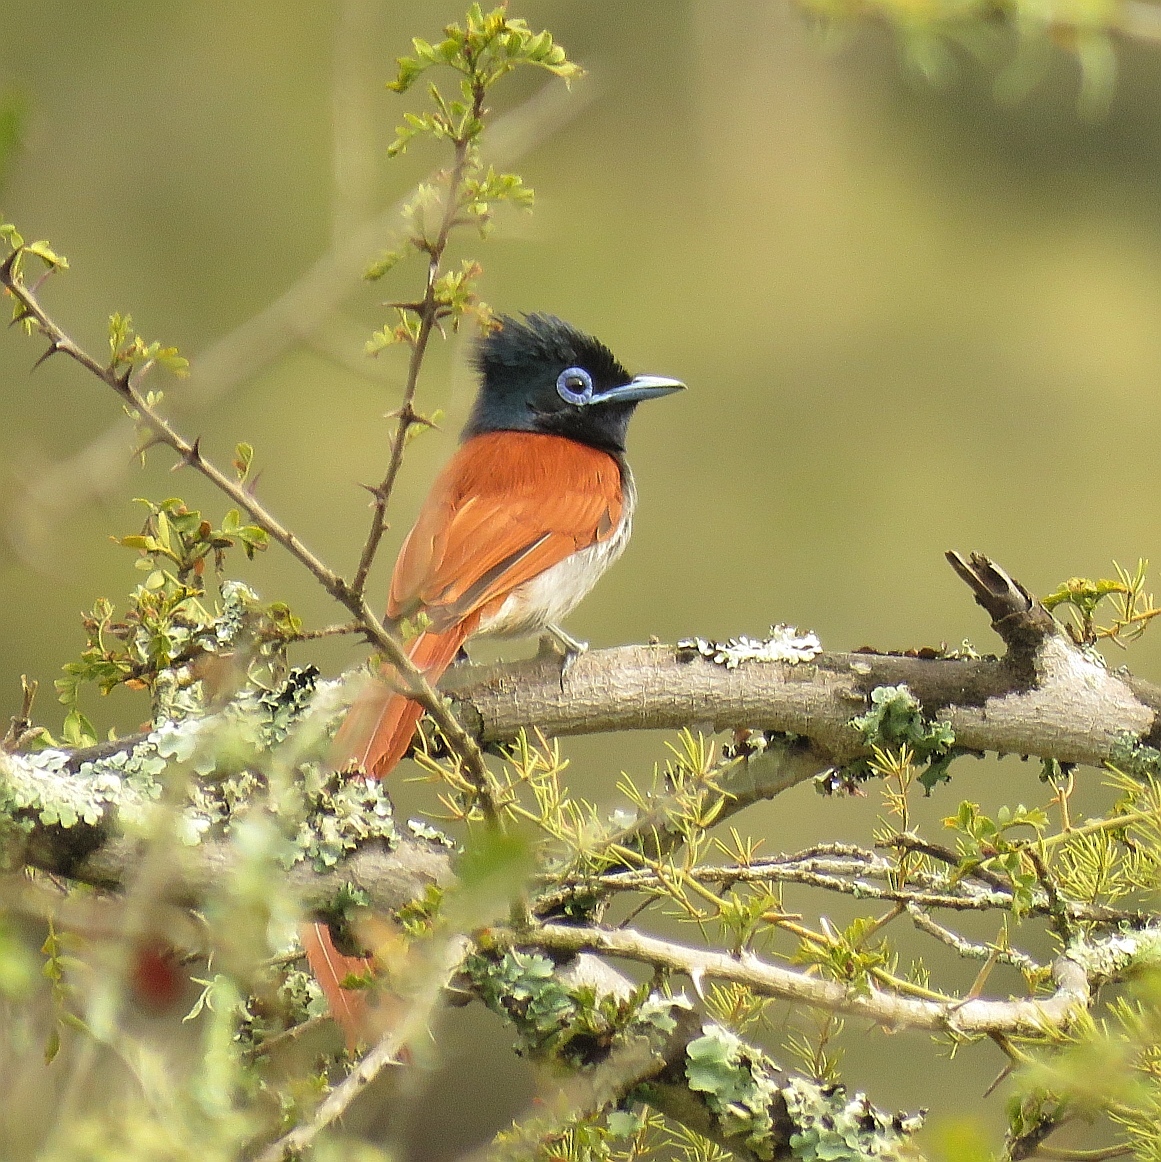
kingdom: Animalia
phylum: Chordata
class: Aves
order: Passeriformes
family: Monarchidae
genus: Terpsiphone
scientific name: Terpsiphone viridis
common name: African paradise flycatcher
